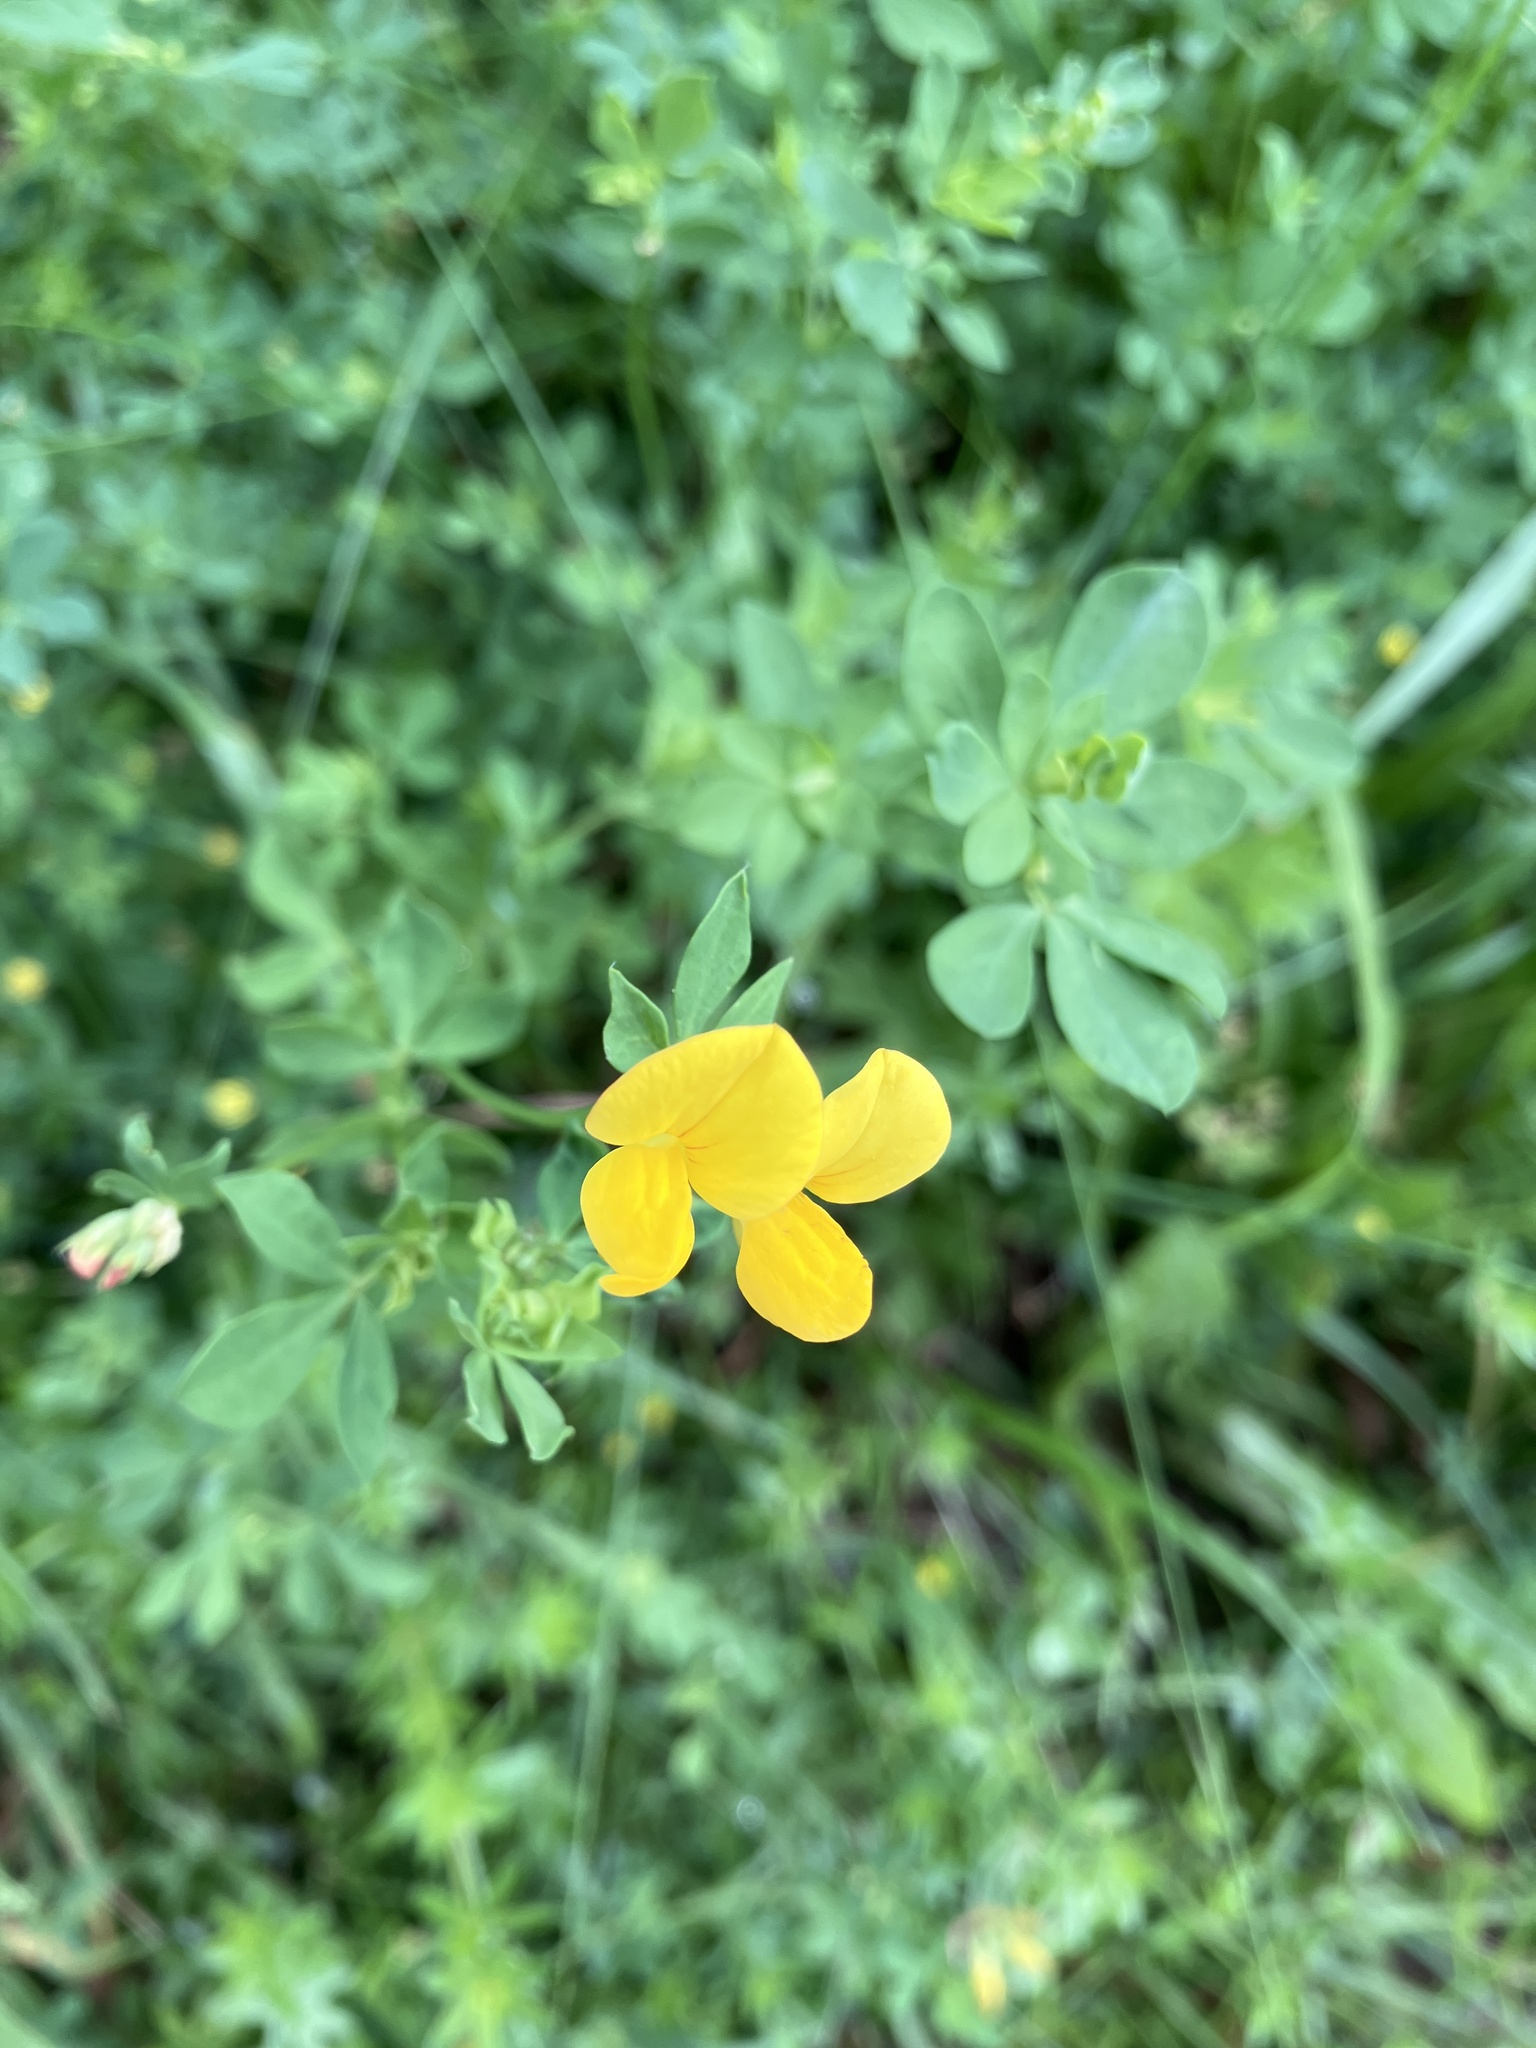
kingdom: Plantae
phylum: Tracheophyta
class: Magnoliopsida
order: Fabales
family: Fabaceae
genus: Lotus
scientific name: Lotus corniculatus
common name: Common bird's-foot-trefoil
